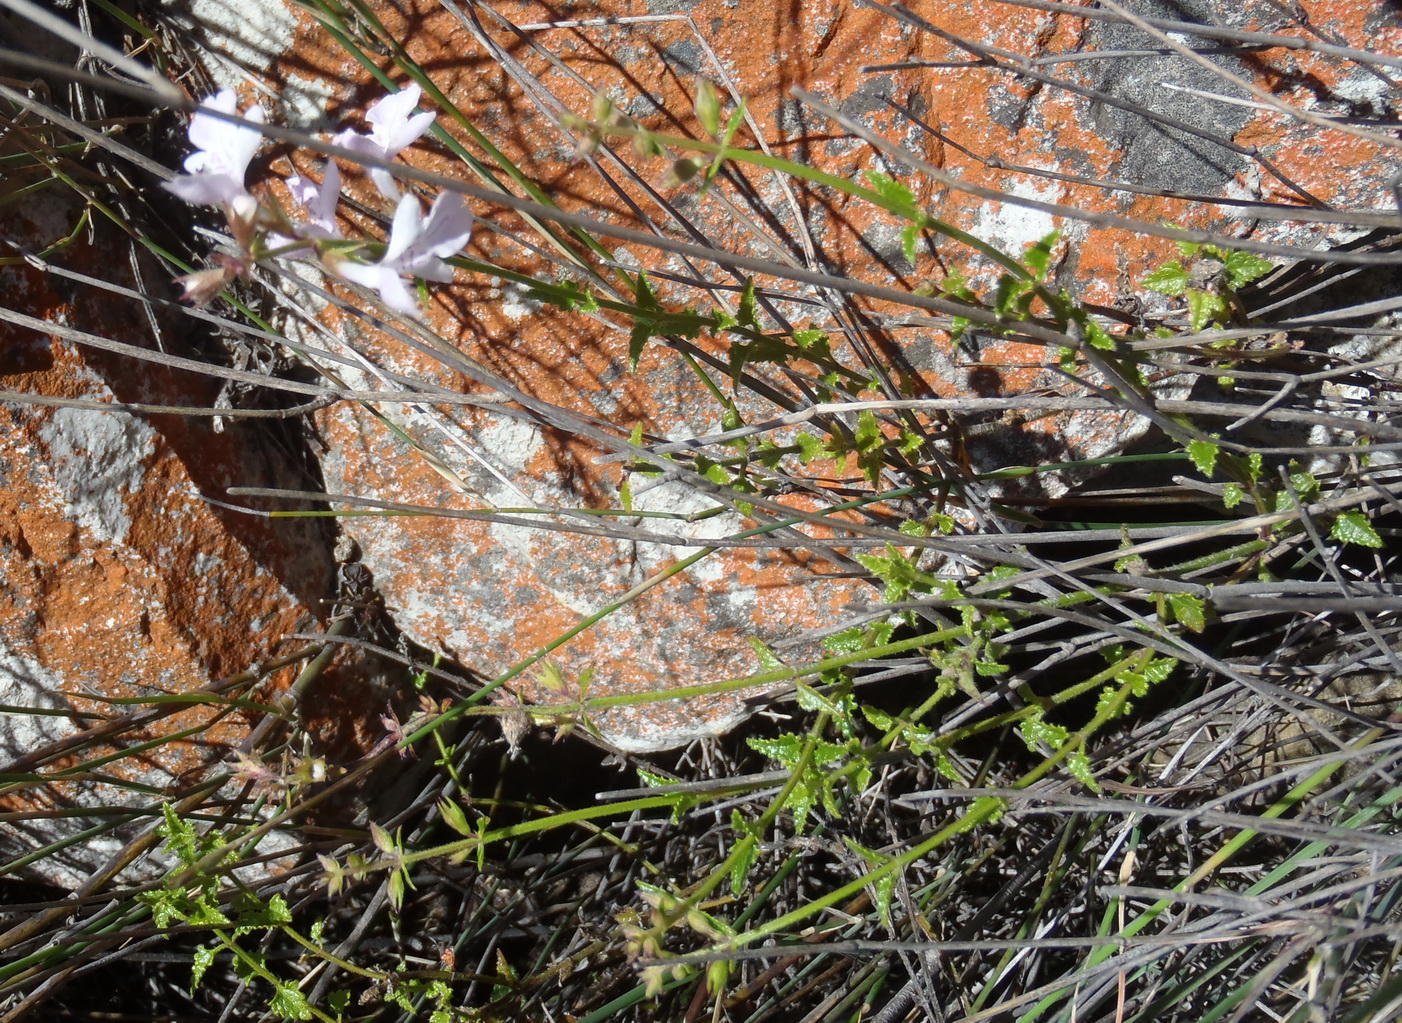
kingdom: Plantae
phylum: Tracheophyta
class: Magnoliopsida
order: Lamiales
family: Lamiaceae
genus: Stachys
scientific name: Stachys aethiopica
